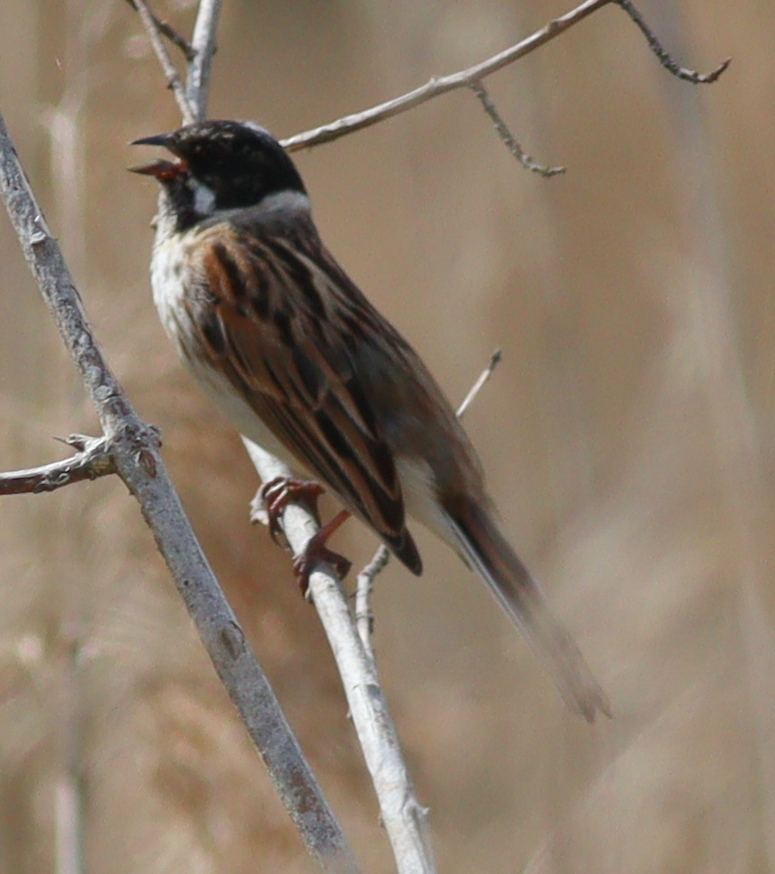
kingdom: Animalia
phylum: Chordata
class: Aves
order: Passeriformes
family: Emberizidae
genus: Emberiza
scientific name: Emberiza schoeniclus
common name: Reed bunting
